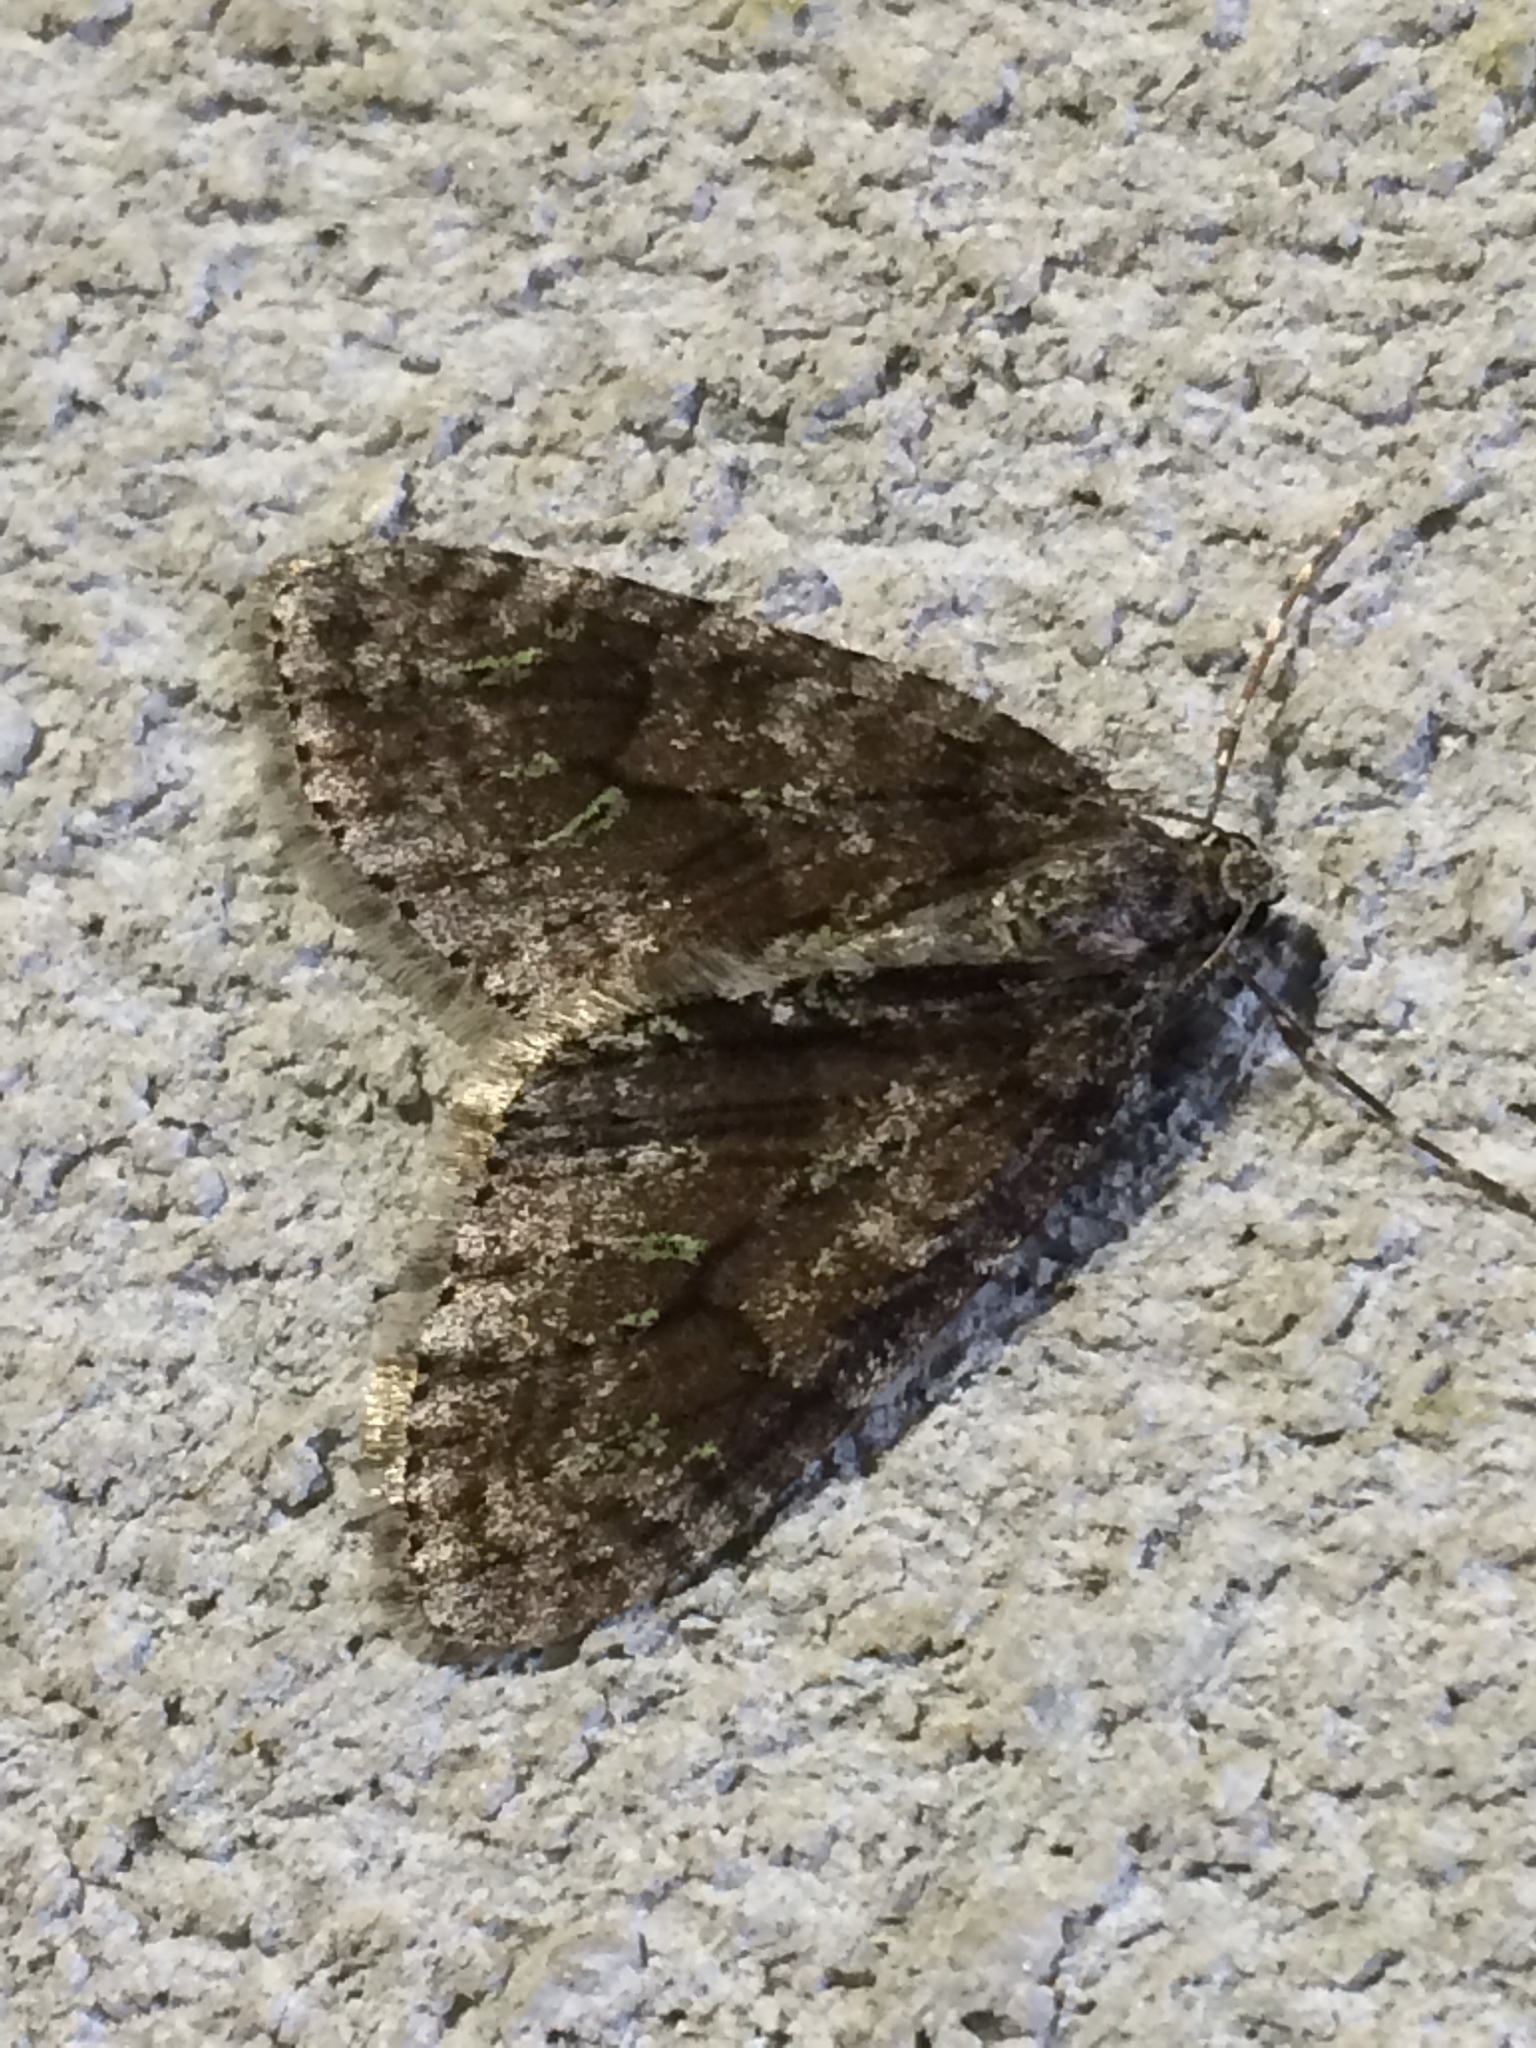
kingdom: Animalia
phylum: Arthropoda
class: Insecta
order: Lepidoptera
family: Geometridae
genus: Cladara
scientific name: Cladara limitaria
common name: Mottled gray carpet
